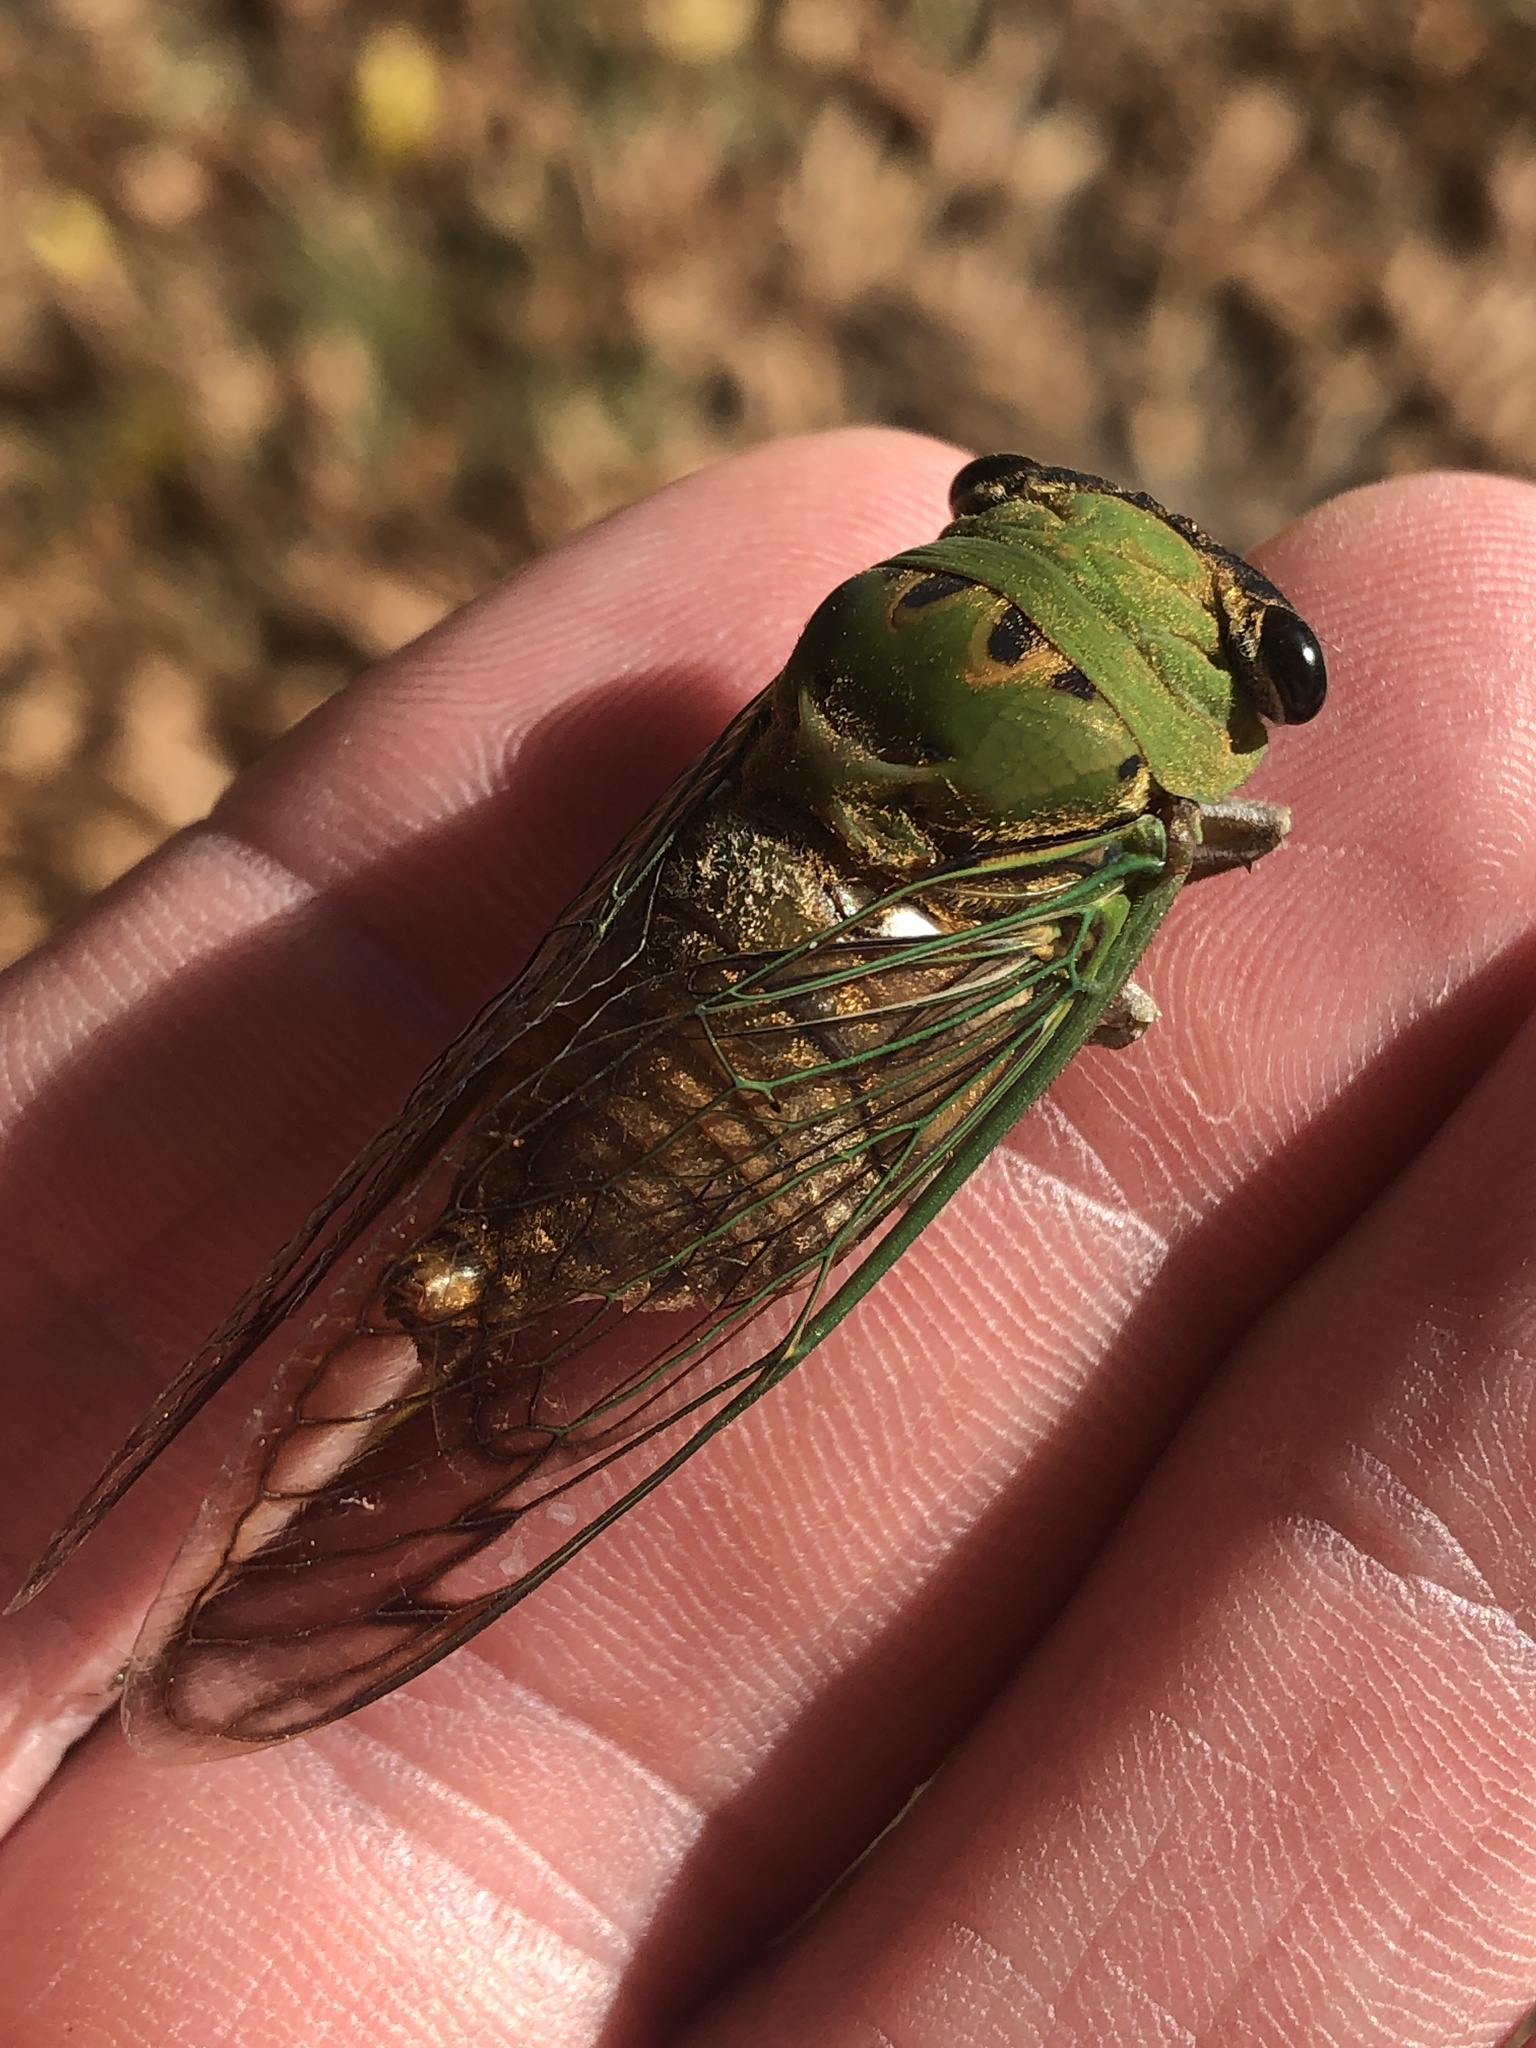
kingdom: Animalia
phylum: Arthropoda
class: Insecta
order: Hemiptera
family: Cicadidae
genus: Neotibicen
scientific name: Neotibicen superbus
